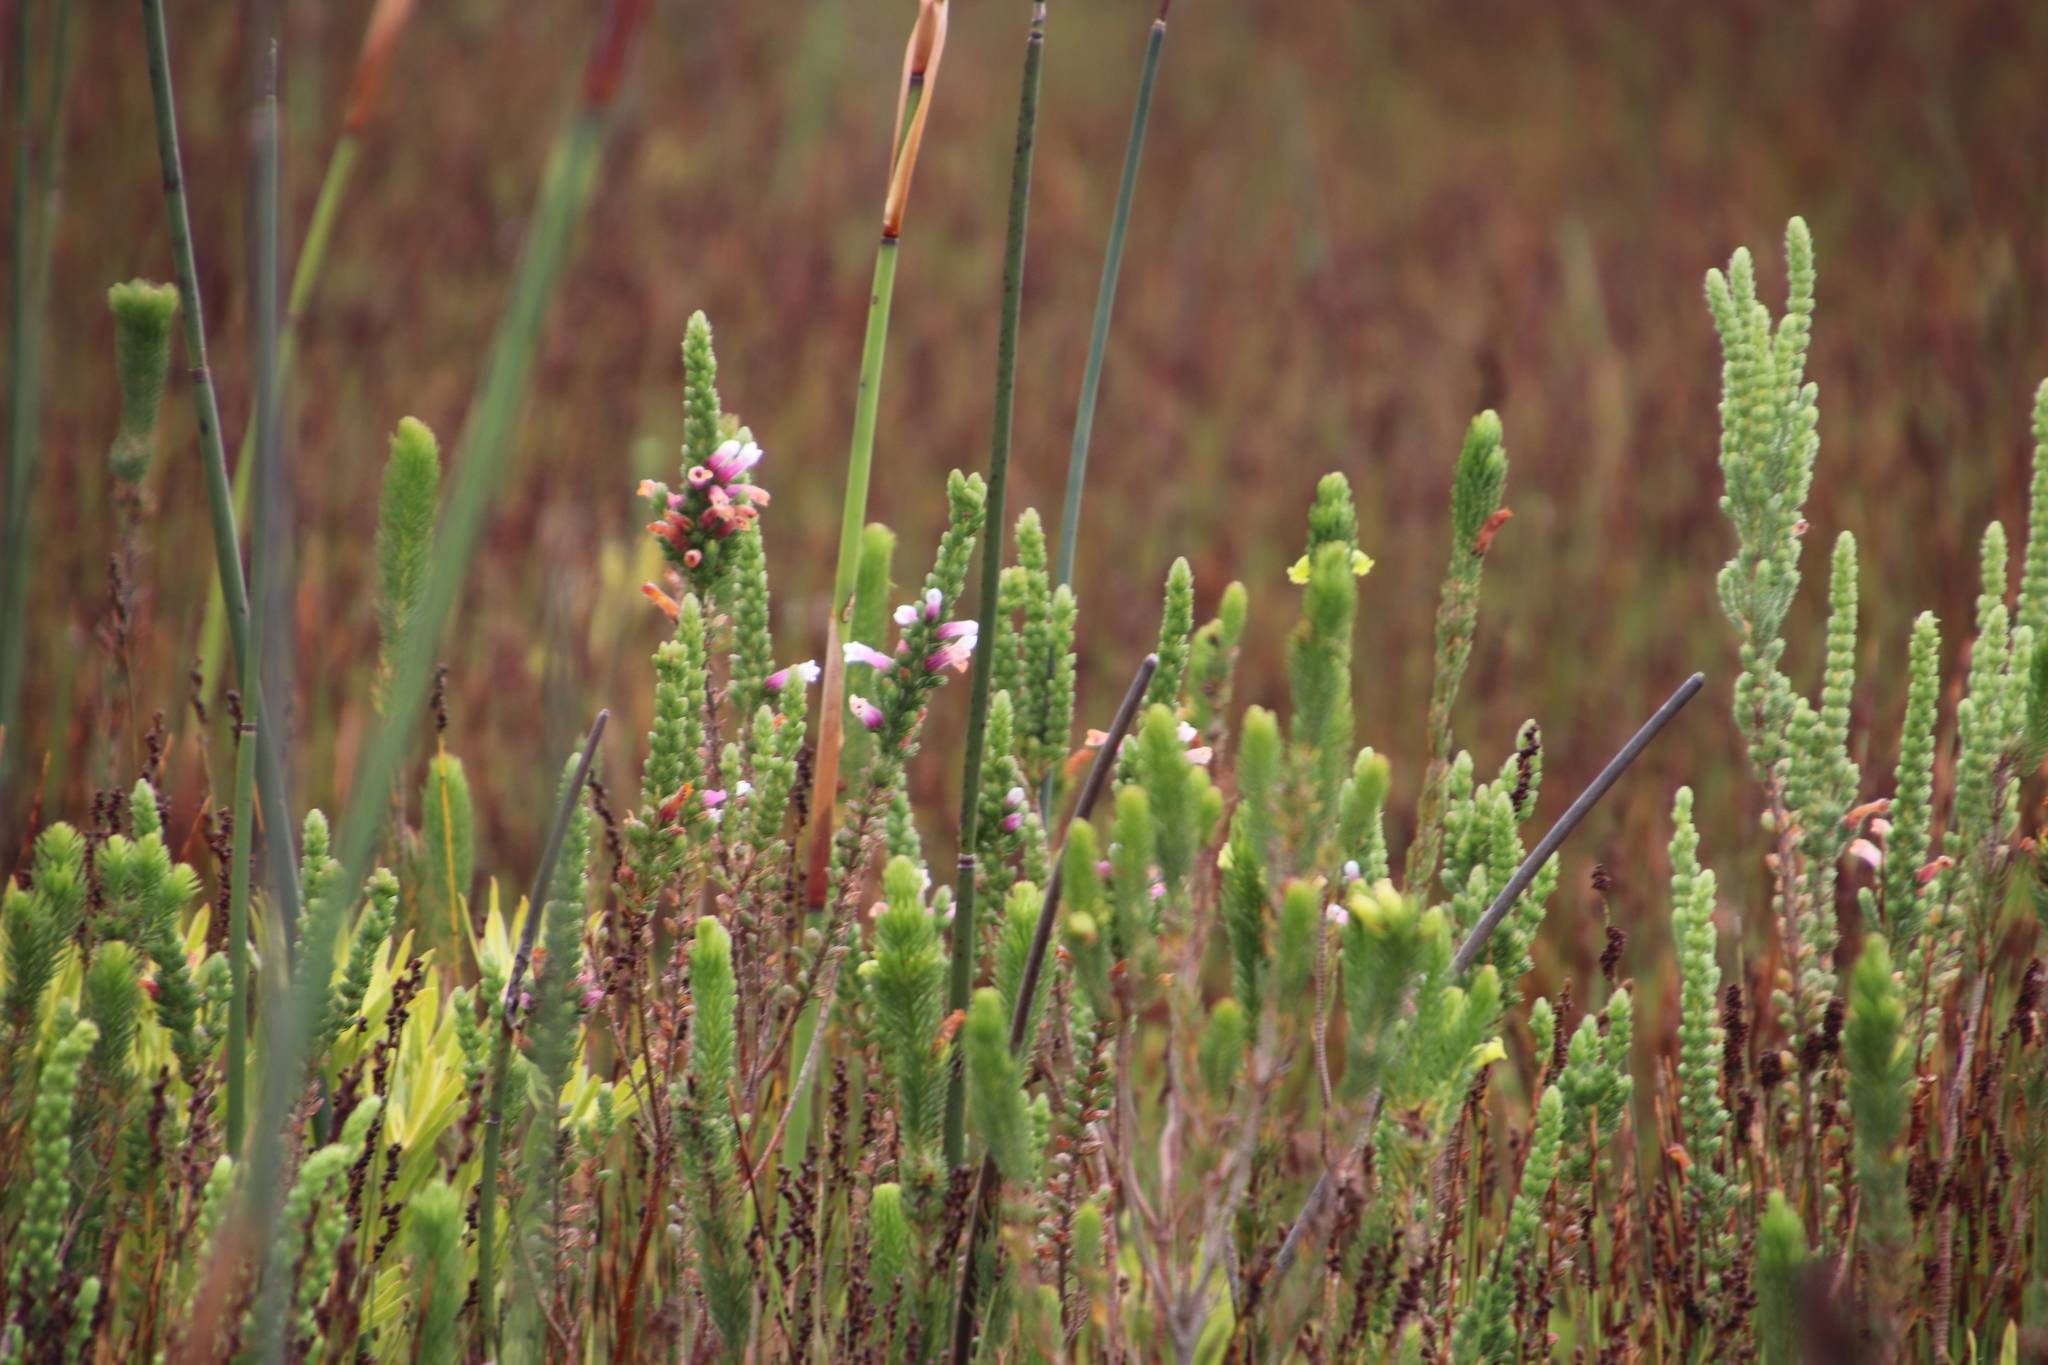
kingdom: Plantae
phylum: Tracheophyta
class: Magnoliopsida
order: Ericales
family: Ericaceae
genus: Erica
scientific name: Erica macowanii
